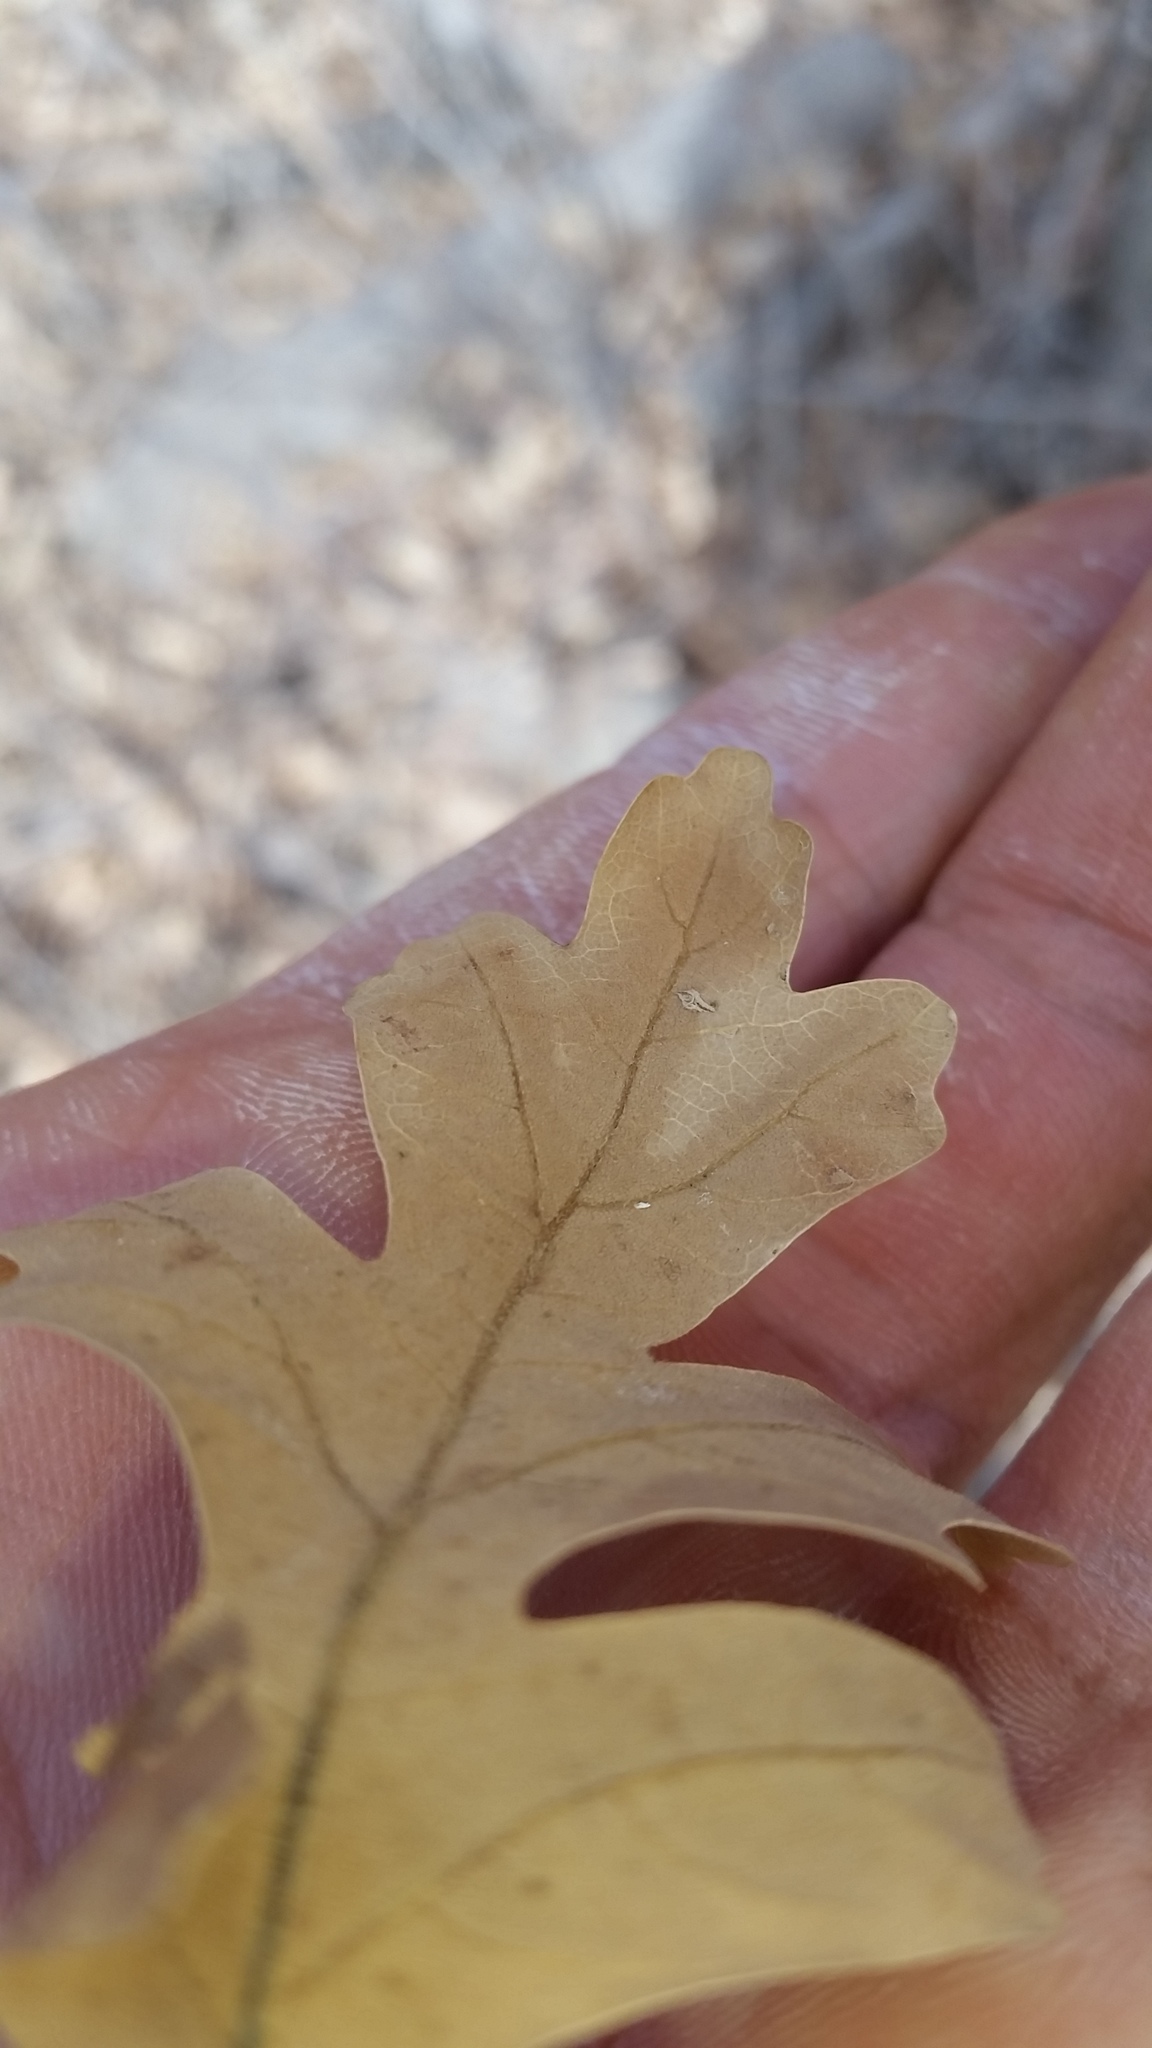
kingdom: Plantae
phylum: Tracheophyta
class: Magnoliopsida
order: Fagales
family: Fagaceae
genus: Quercus
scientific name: Quercus gambelii
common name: Gambel oak
